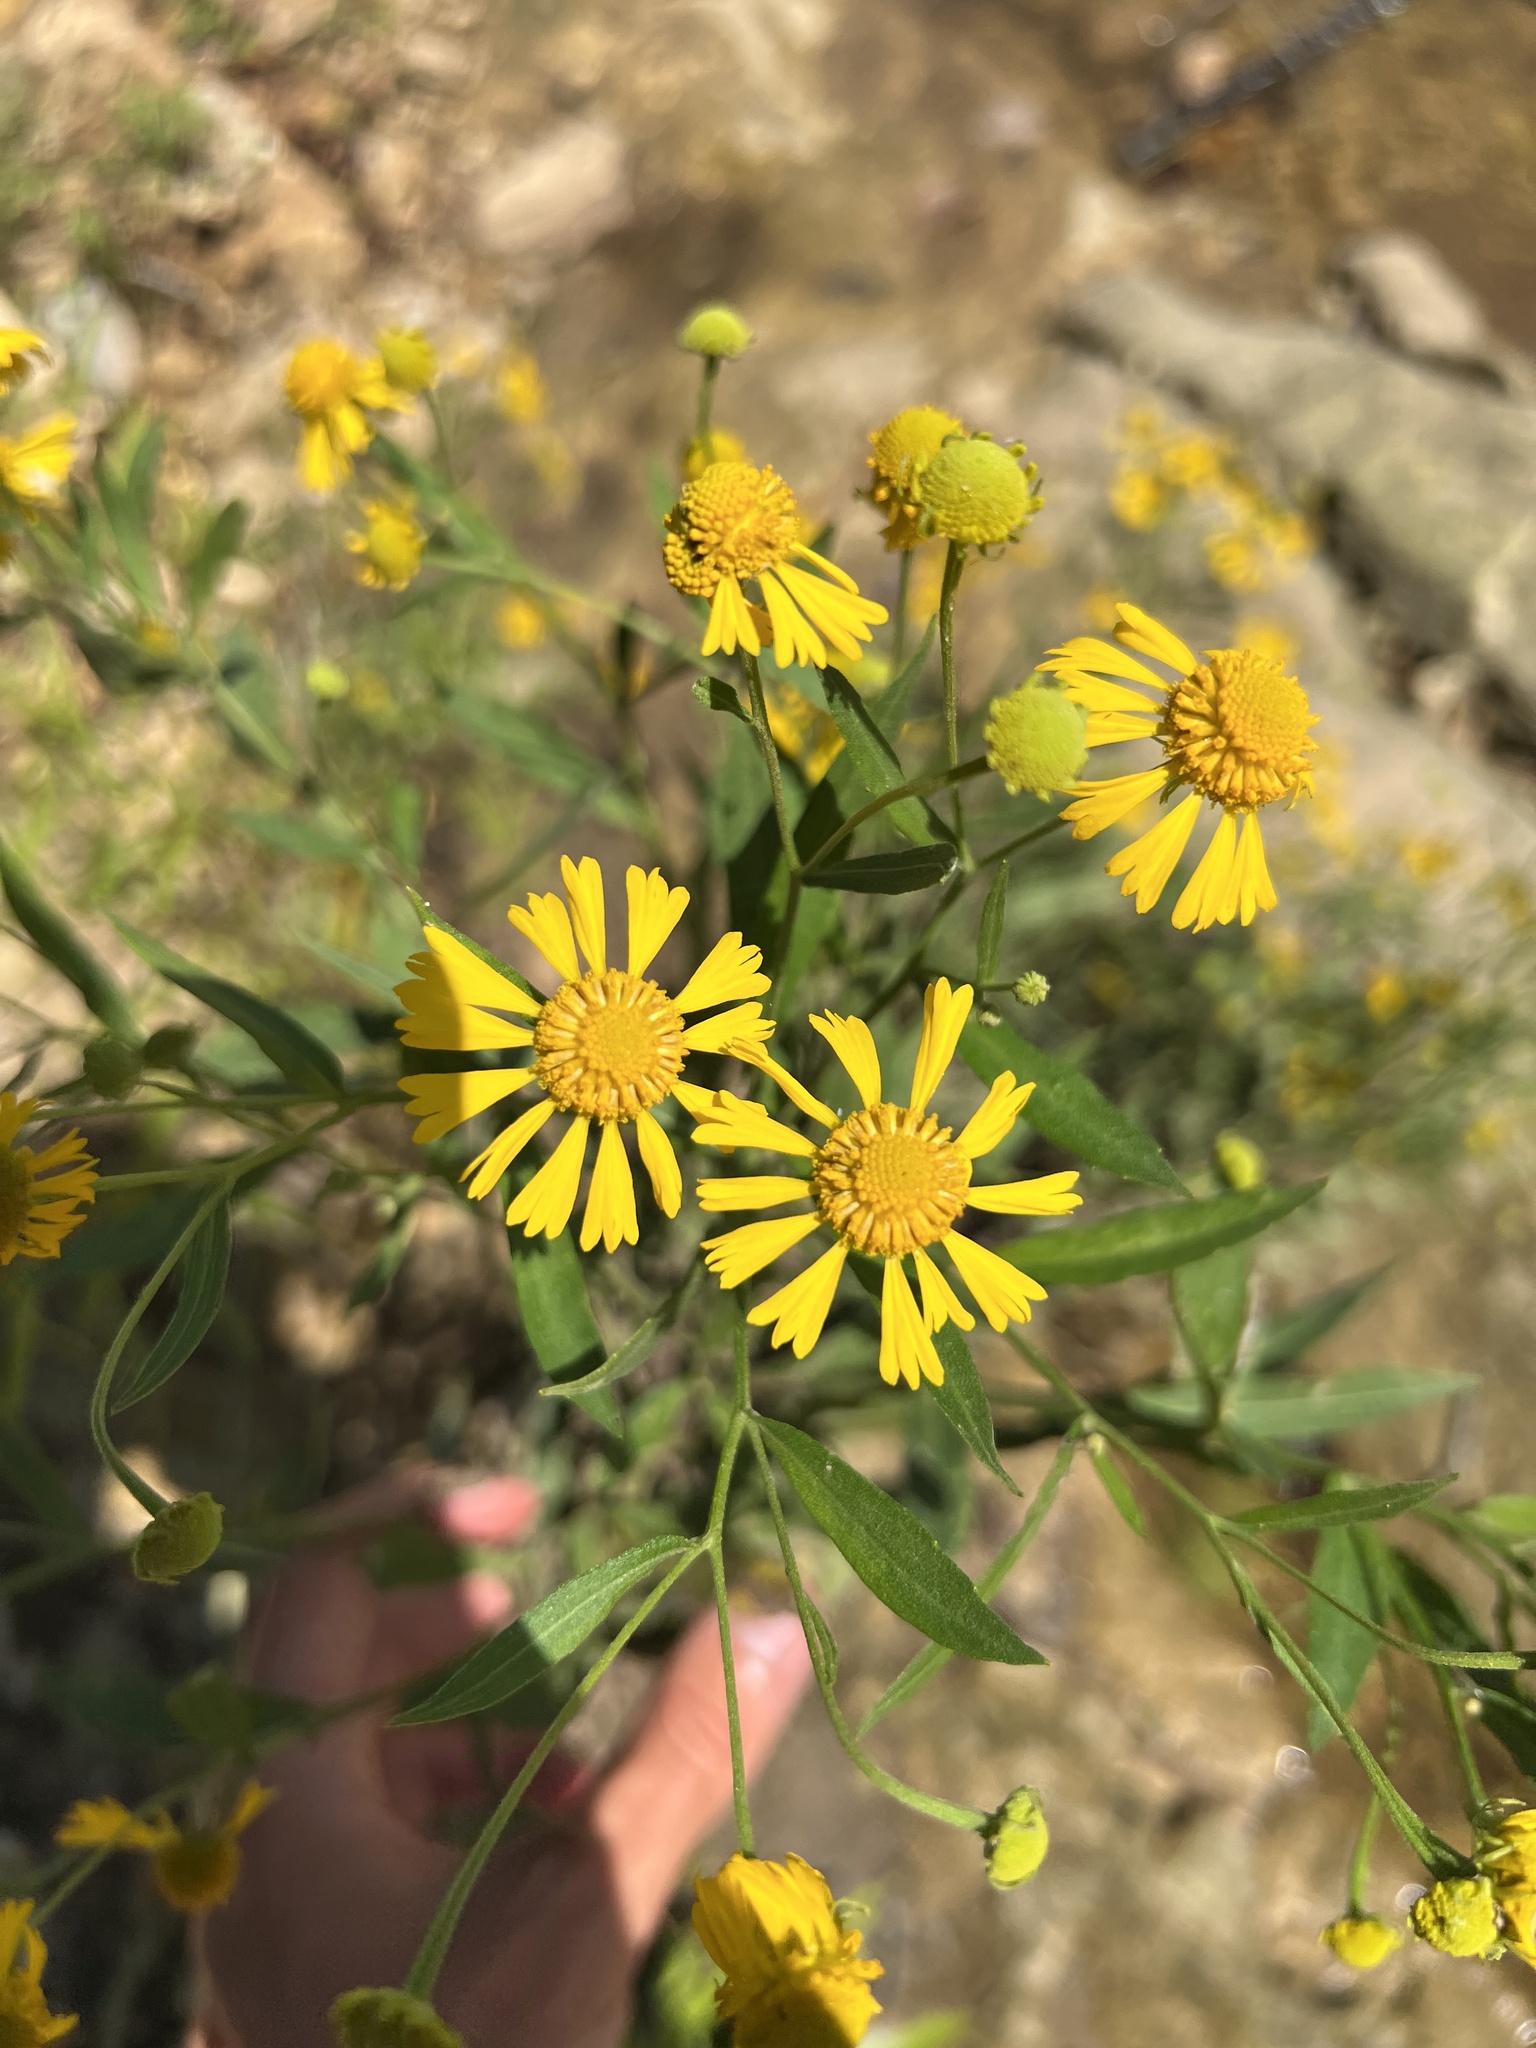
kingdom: Plantae
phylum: Tracheophyta
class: Magnoliopsida
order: Asterales
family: Asteraceae
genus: Helenium
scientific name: Helenium autumnale
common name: Sneezeweed
